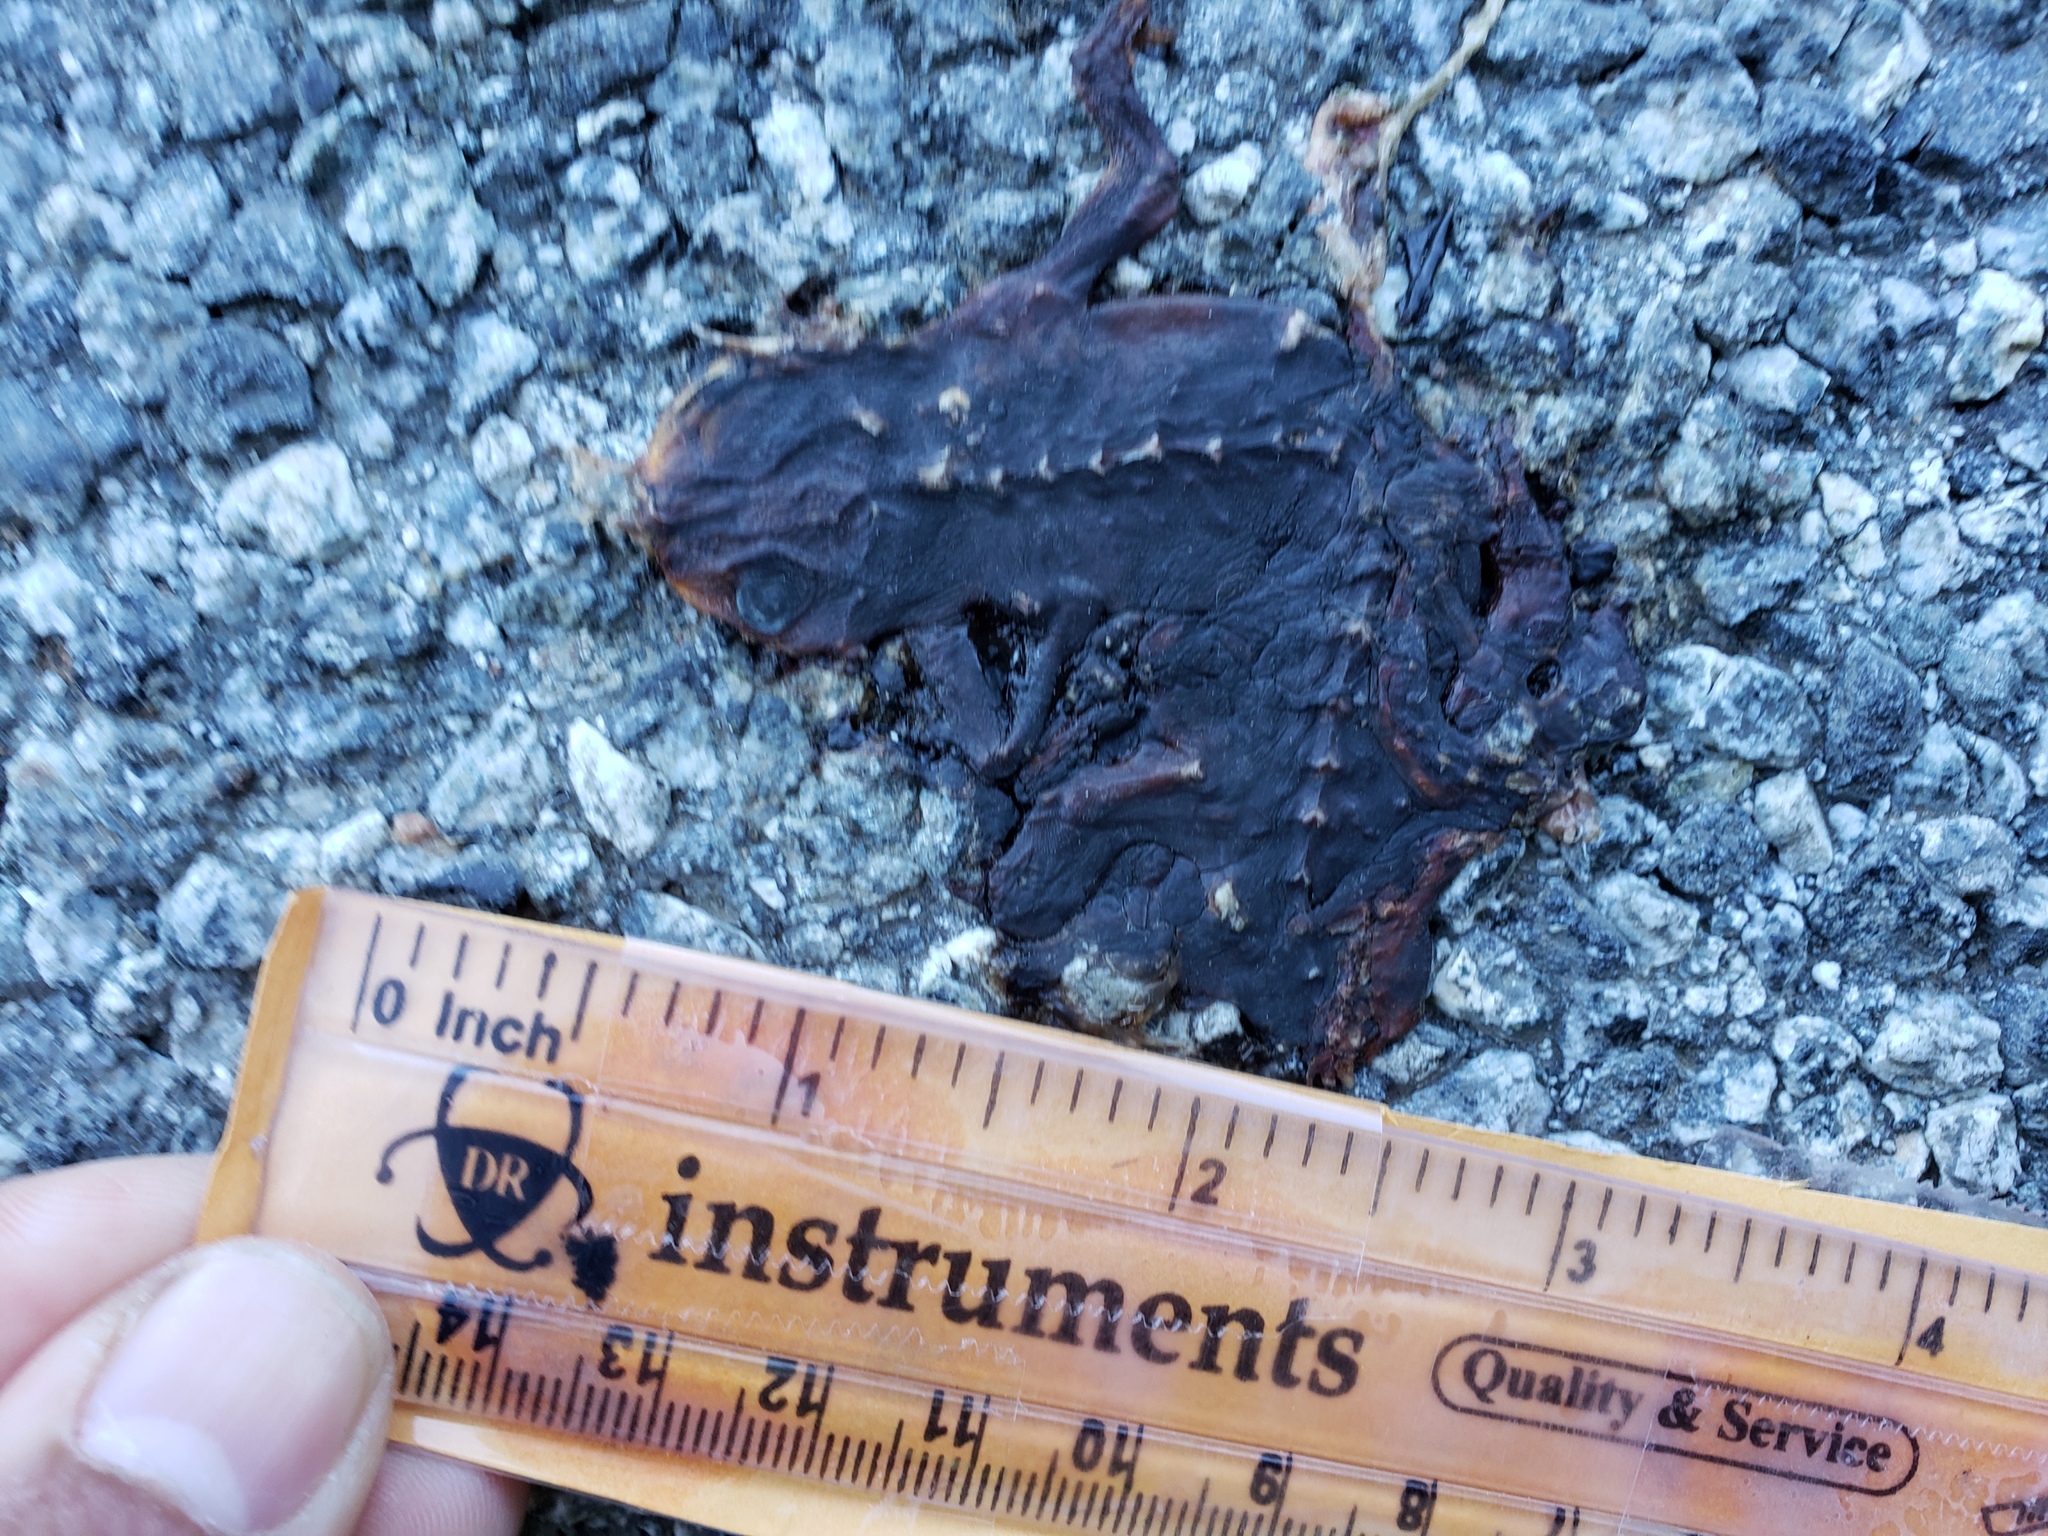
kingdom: Animalia
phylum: Chordata
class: Amphibia
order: Caudata
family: Salamandridae
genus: Taricha
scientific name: Taricha
